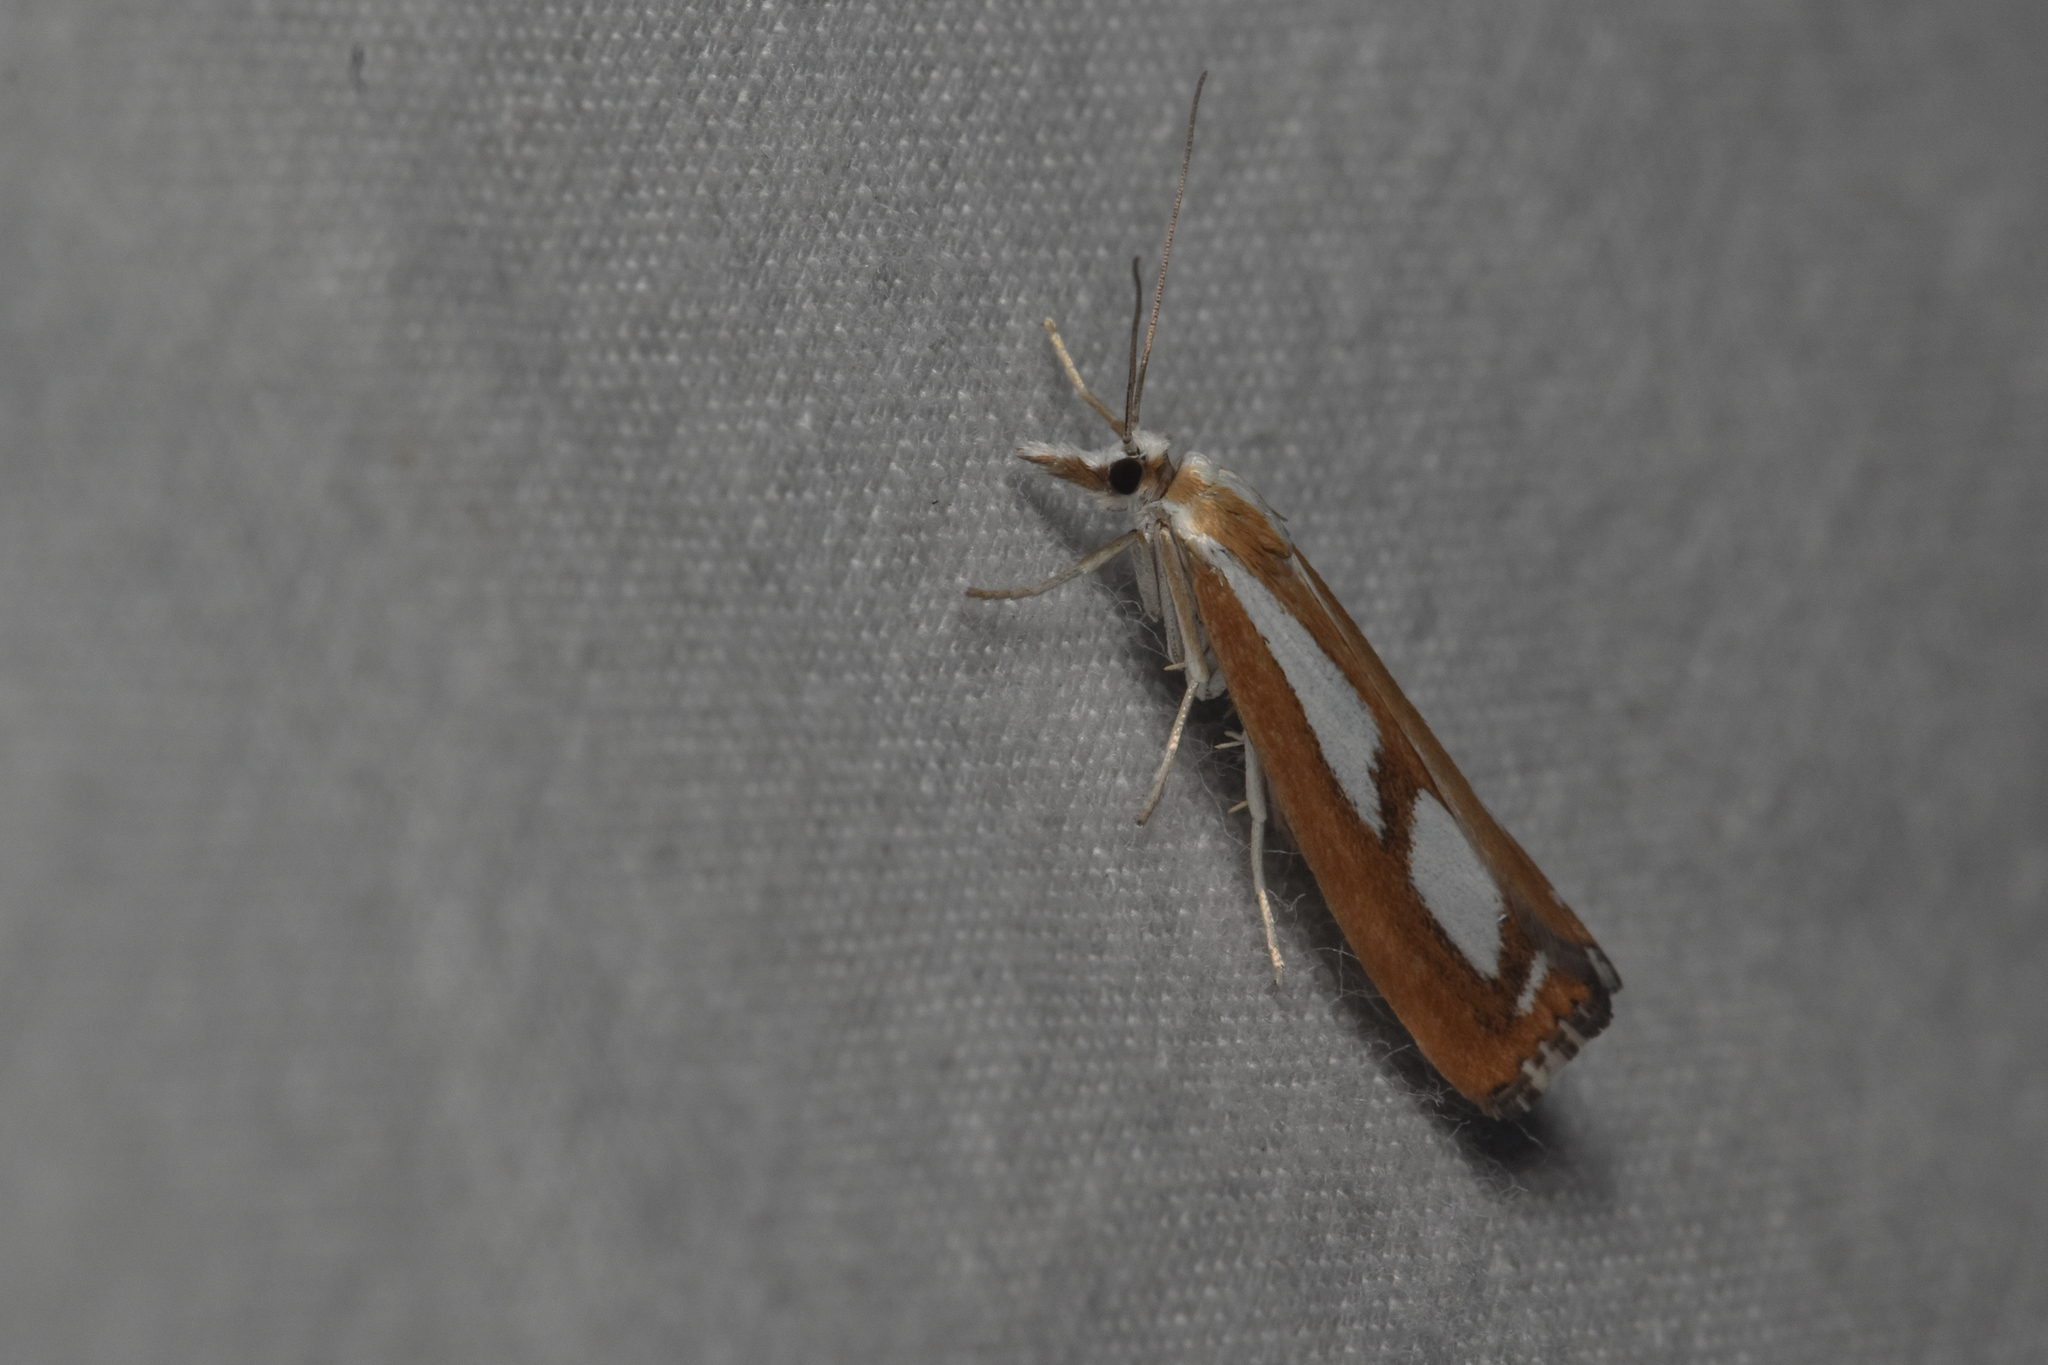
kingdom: Animalia
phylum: Arthropoda
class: Insecta
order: Lepidoptera
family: Crambidae
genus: Catoptria
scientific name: Catoptria latiradiellus
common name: Two-banded catoptria moth
